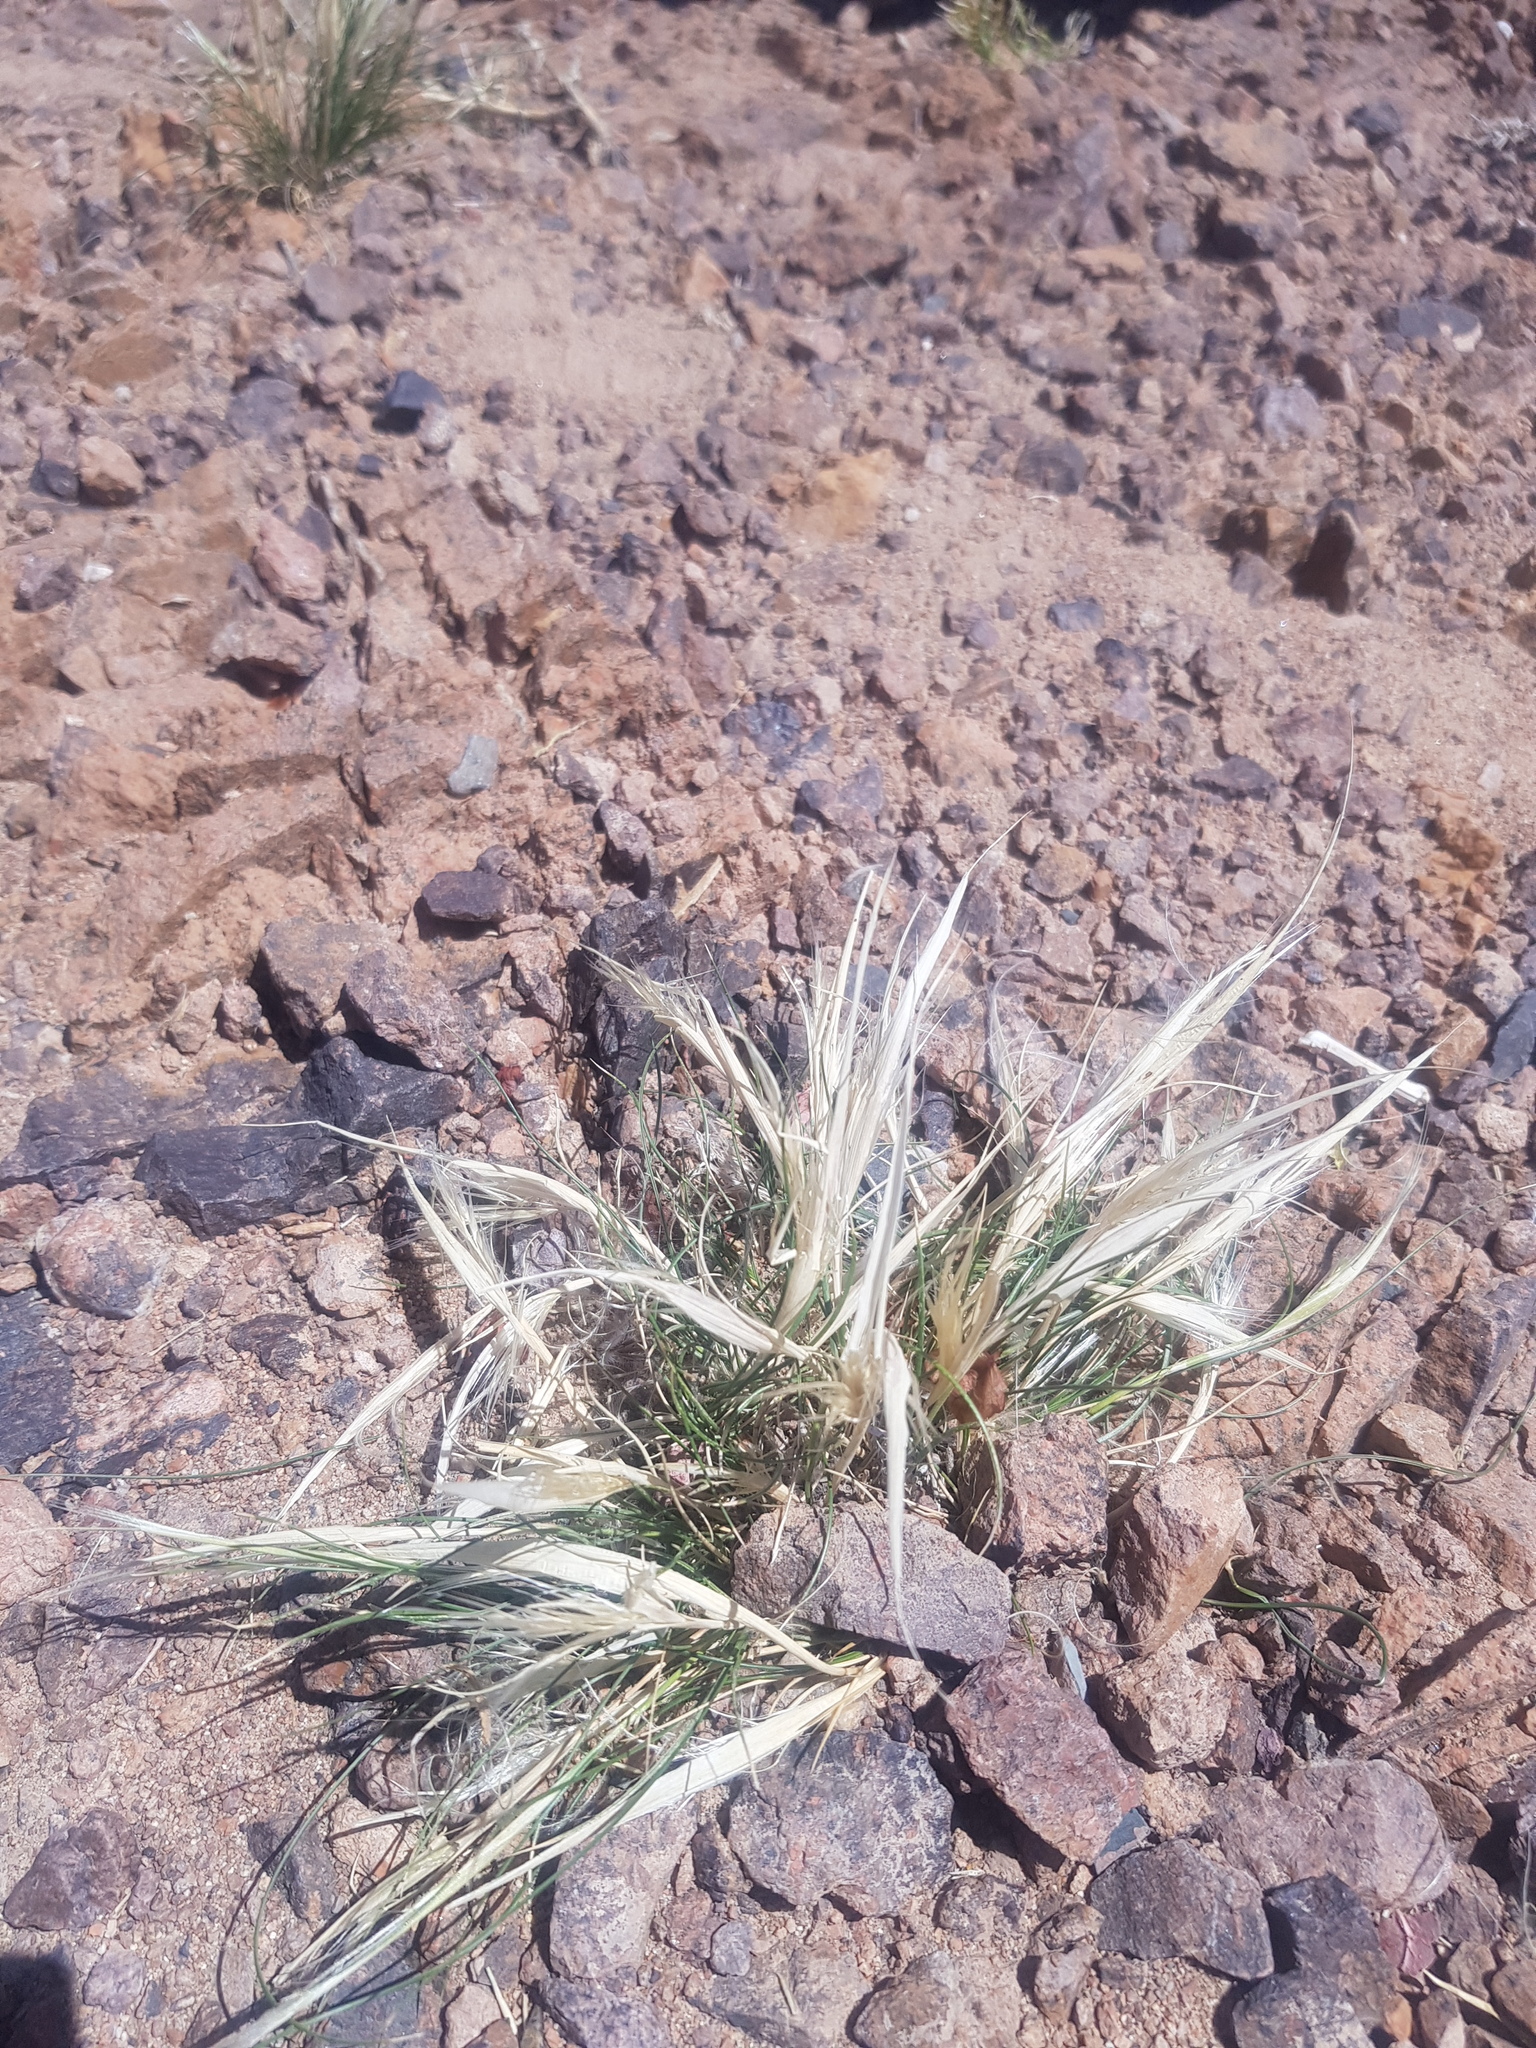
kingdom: Plantae
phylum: Tracheophyta
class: Liliopsida
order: Poales
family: Poaceae
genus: Stipa
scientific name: Stipa glareosa
